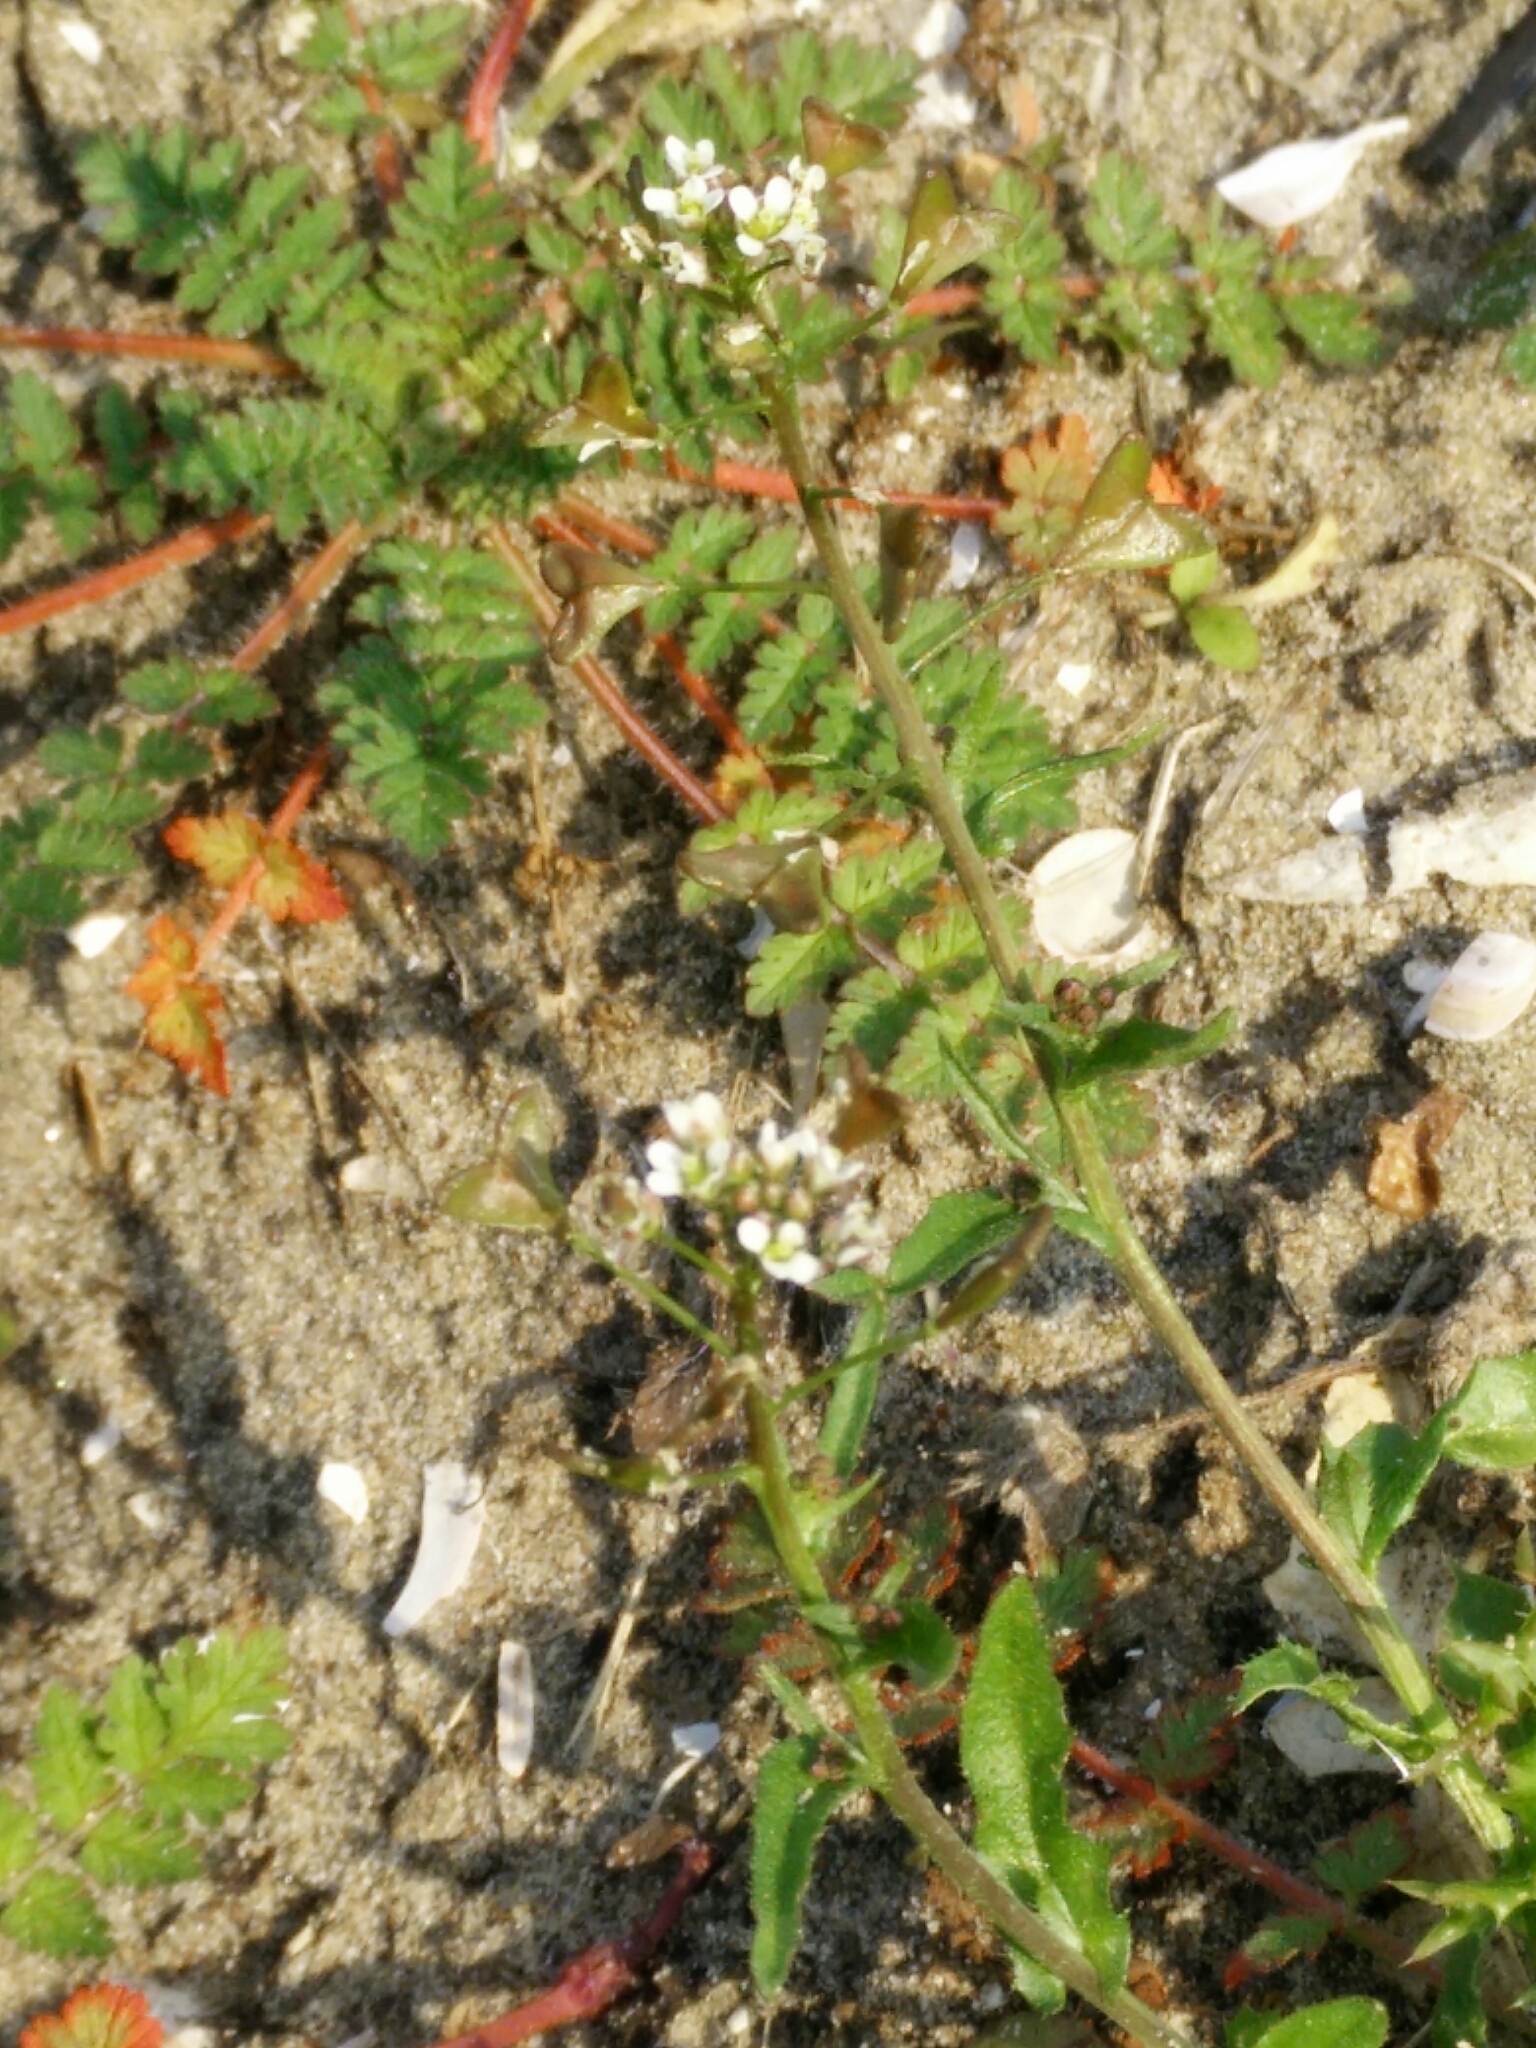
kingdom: Plantae
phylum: Tracheophyta
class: Magnoliopsida
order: Brassicales
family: Brassicaceae
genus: Capsella
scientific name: Capsella bursa-pastoris
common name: Shepherd's purse
